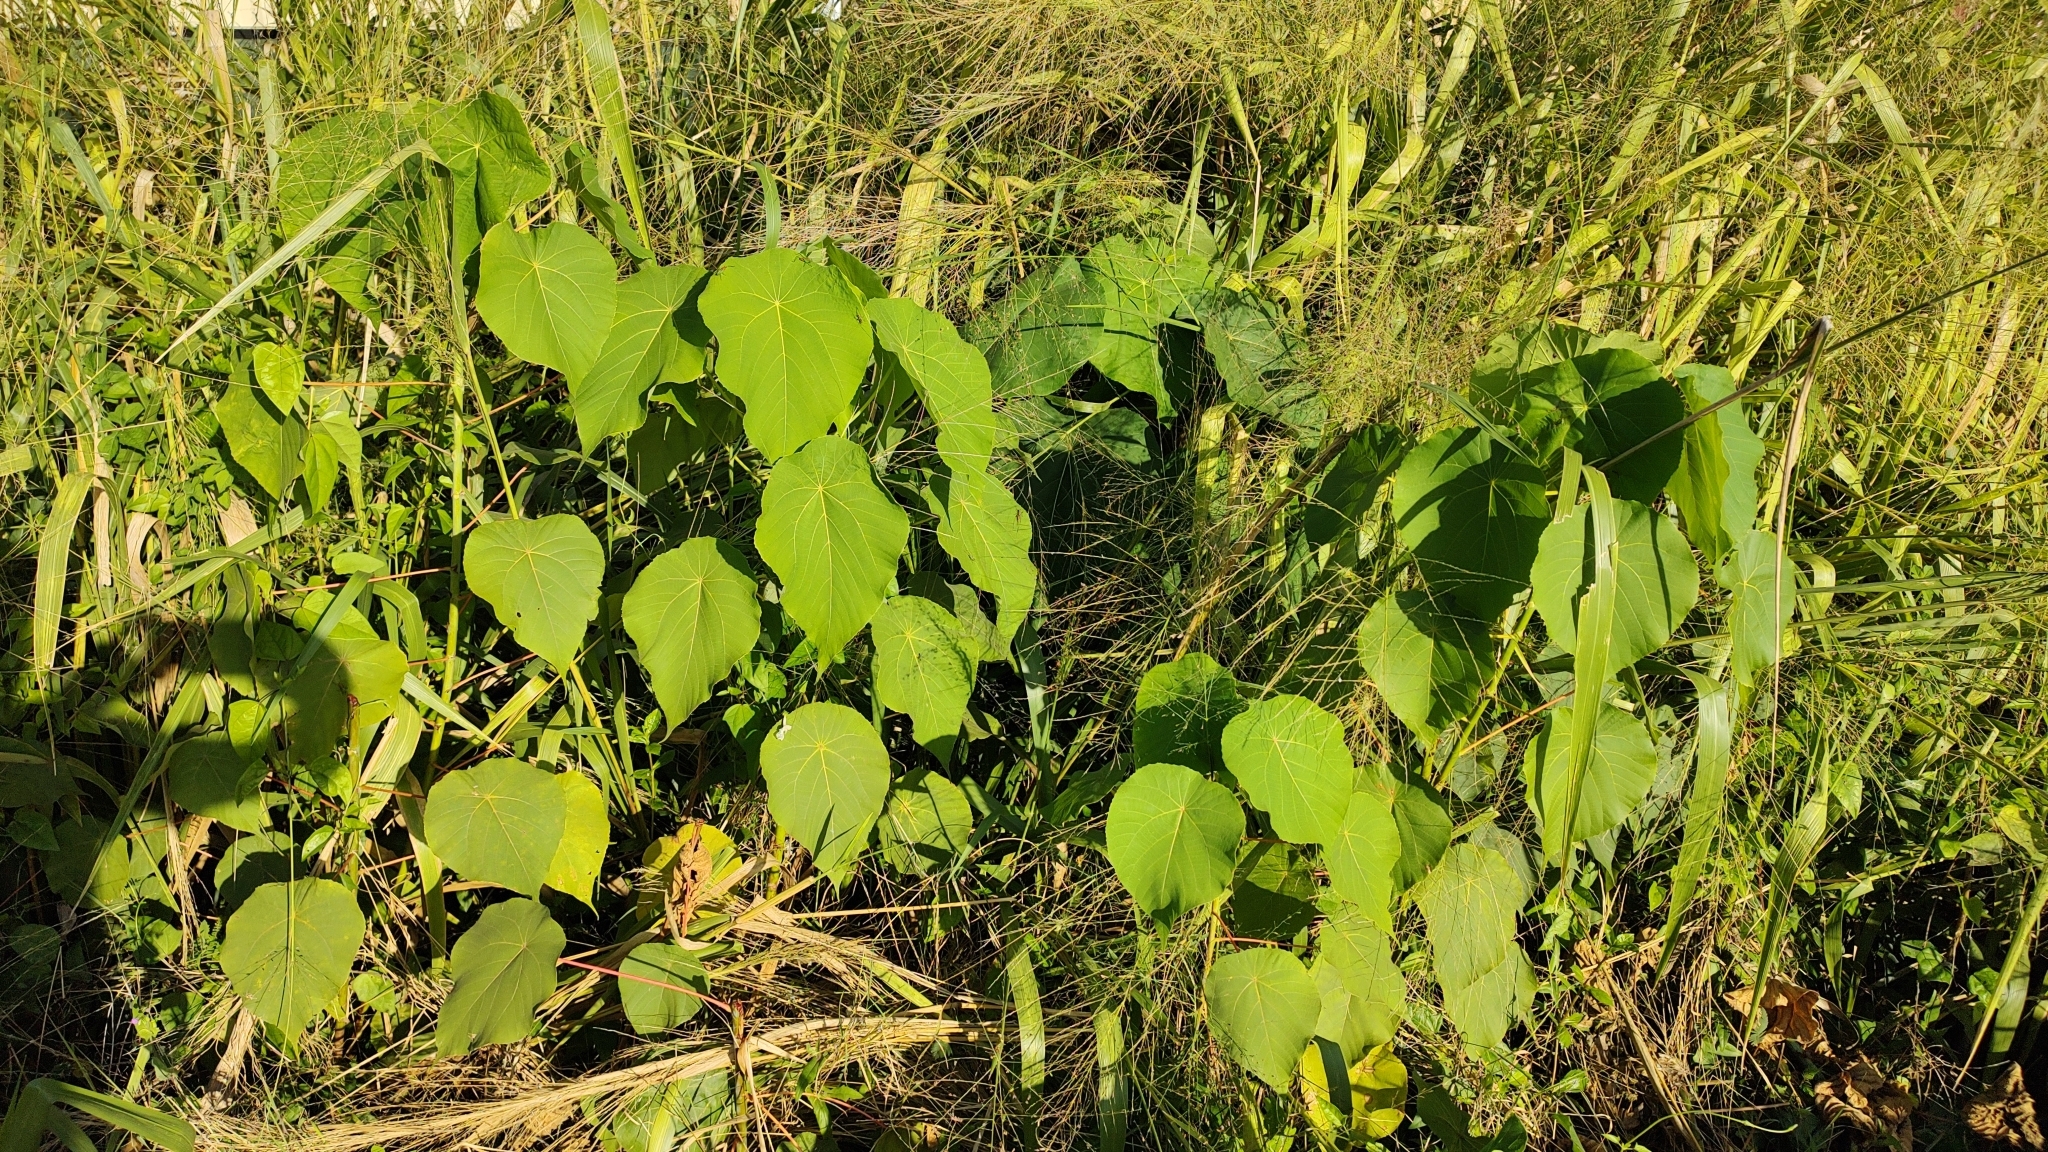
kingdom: Plantae
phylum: Tracheophyta
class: Magnoliopsida
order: Malpighiales
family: Euphorbiaceae
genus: Macaranga
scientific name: Macaranga tanarius
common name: Parasol leaf tree
